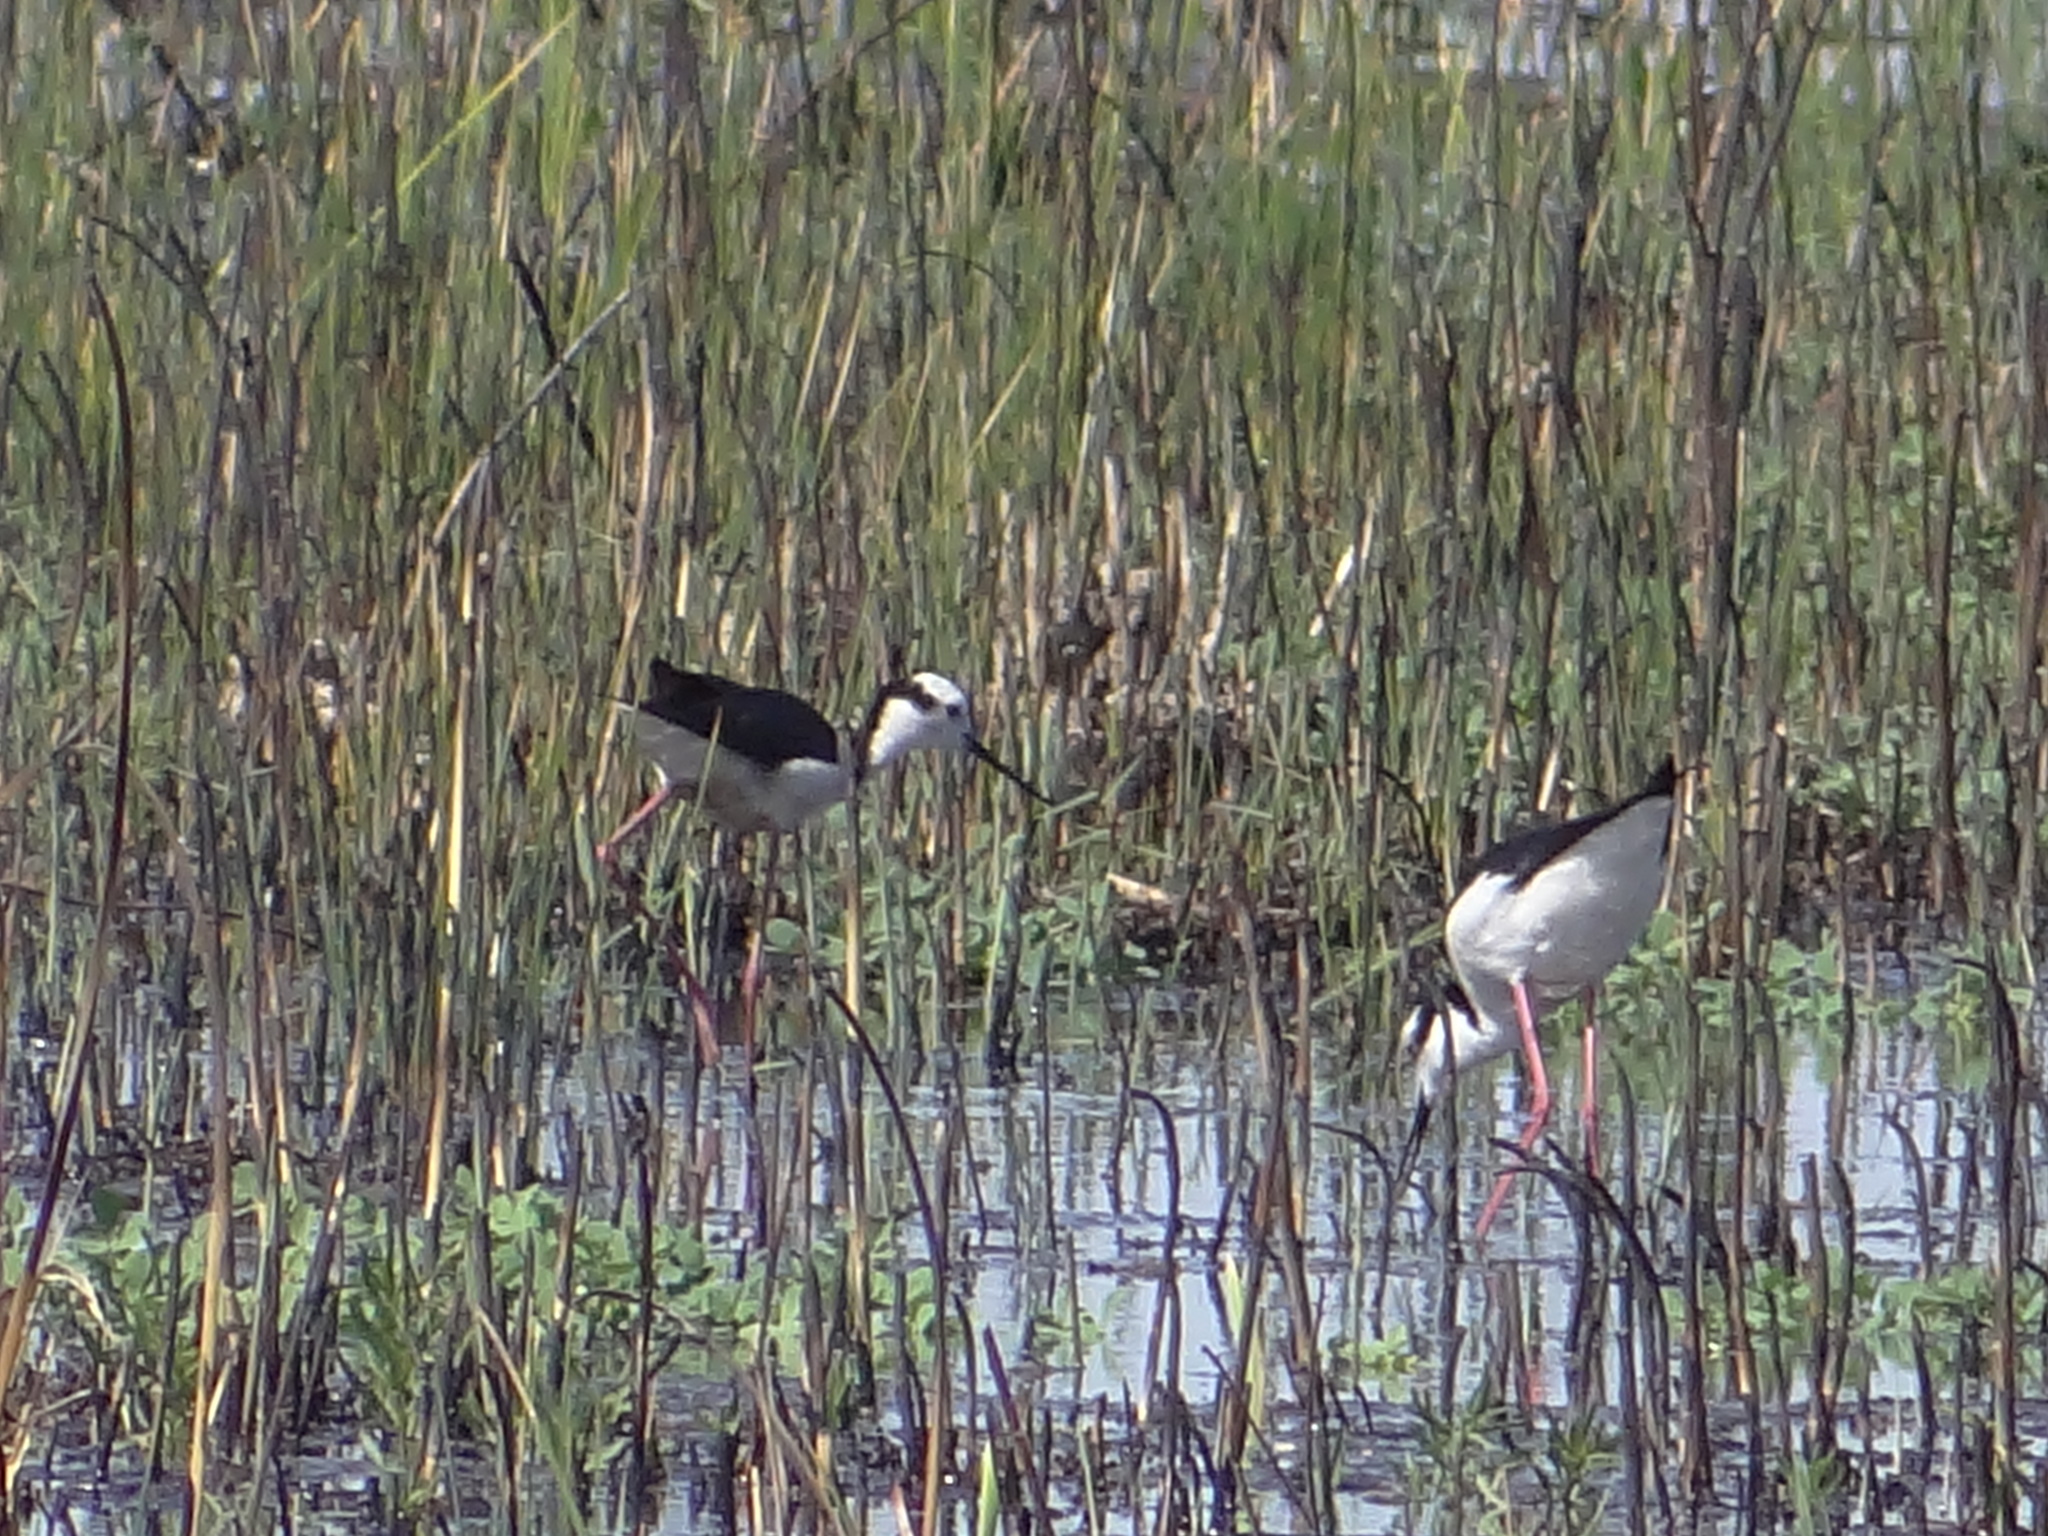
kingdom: Animalia
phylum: Chordata
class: Aves
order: Charadriiformes
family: Recurvirostridae
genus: Himantopus
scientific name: Himantopus mexicanus
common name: Black-necked stilt
